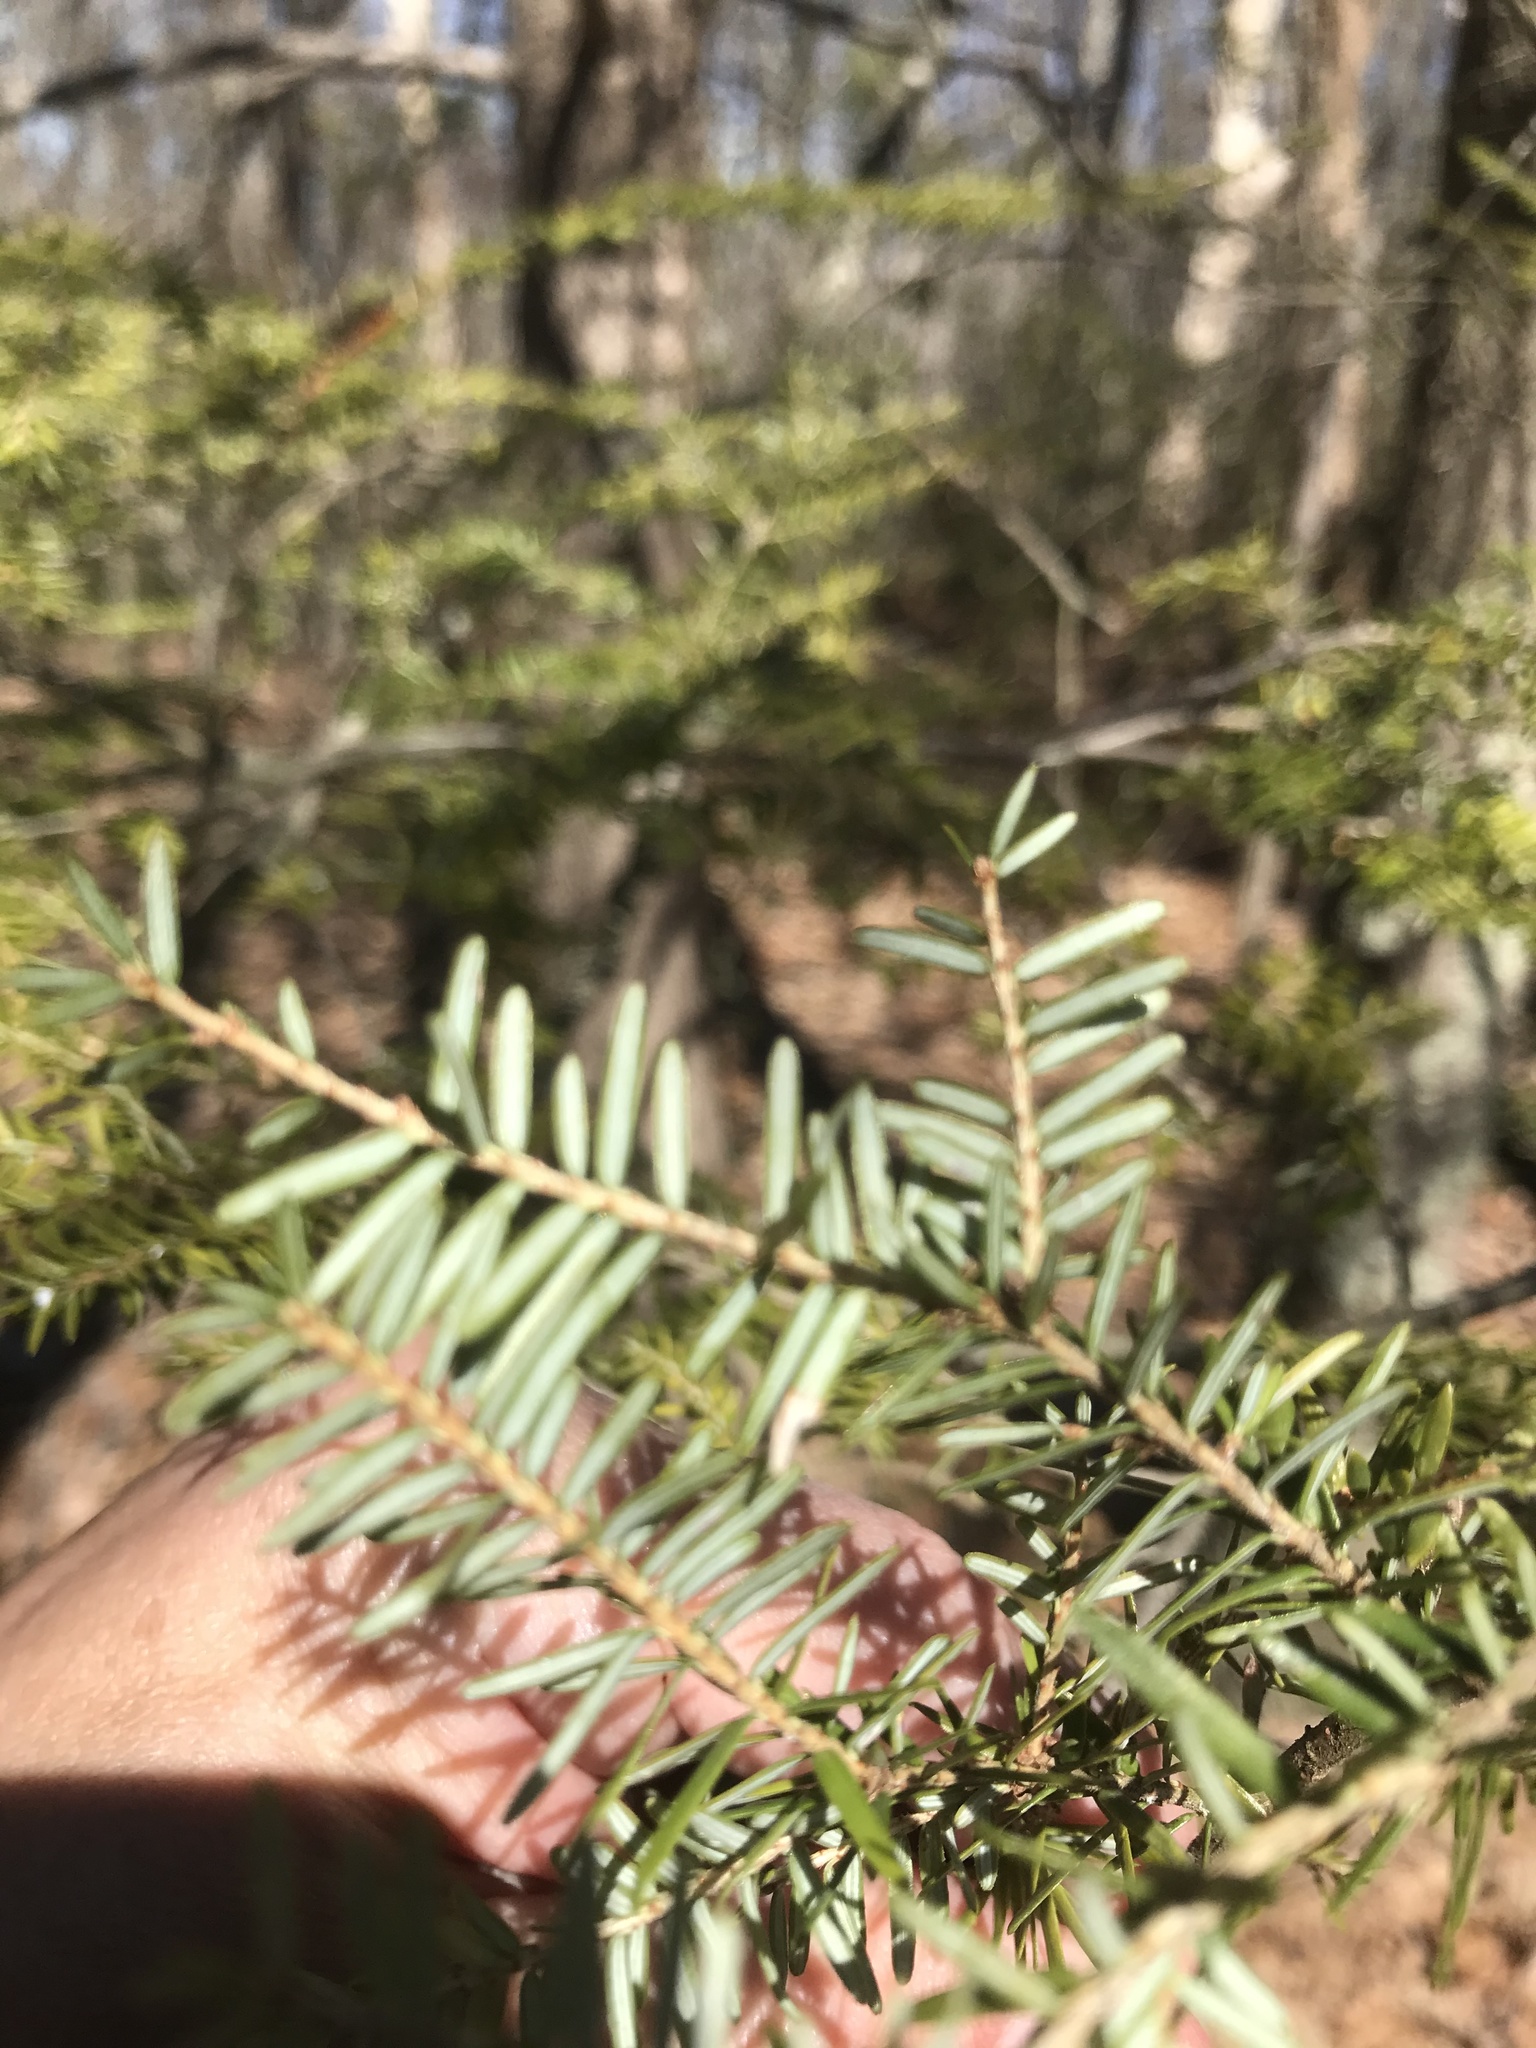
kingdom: Plantae
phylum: Tracheophyta
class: Pinopsida
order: Pinales
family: Pinaceae
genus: Tsuga
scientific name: Tsuga canadensis
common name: Eastern hemlock
